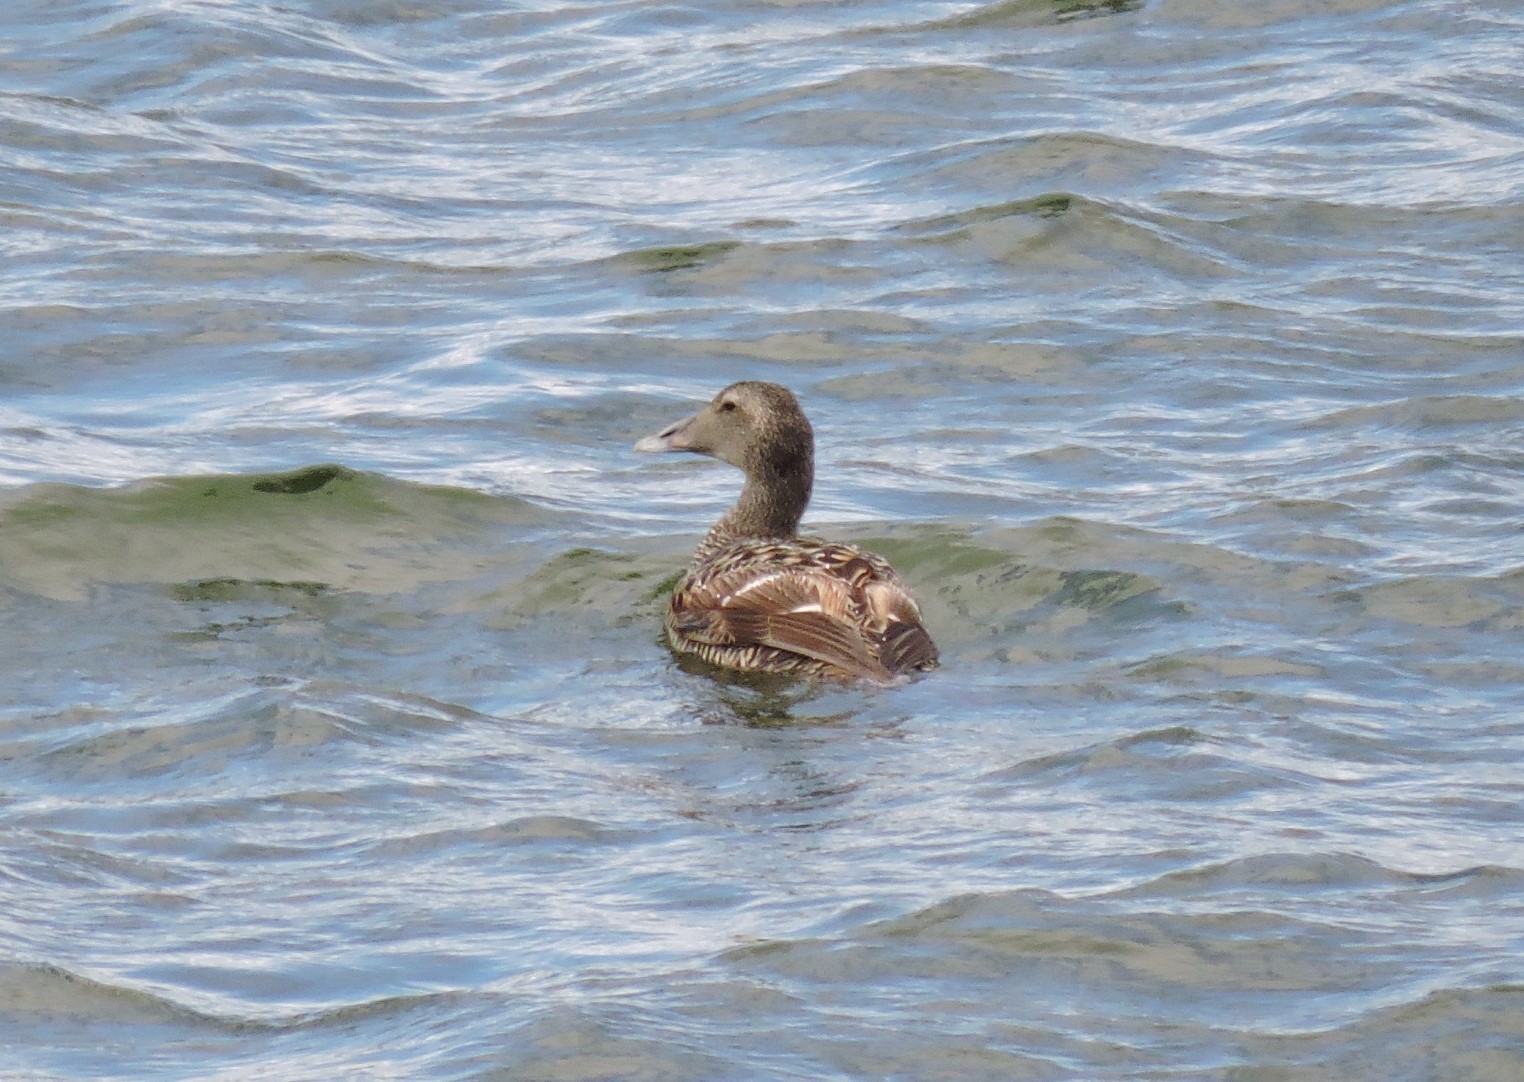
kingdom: Animalia
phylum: Chordata
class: Aves
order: Anseriformes
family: Anatidae
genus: Somateria
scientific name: Somateria mollissima
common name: Common eider
